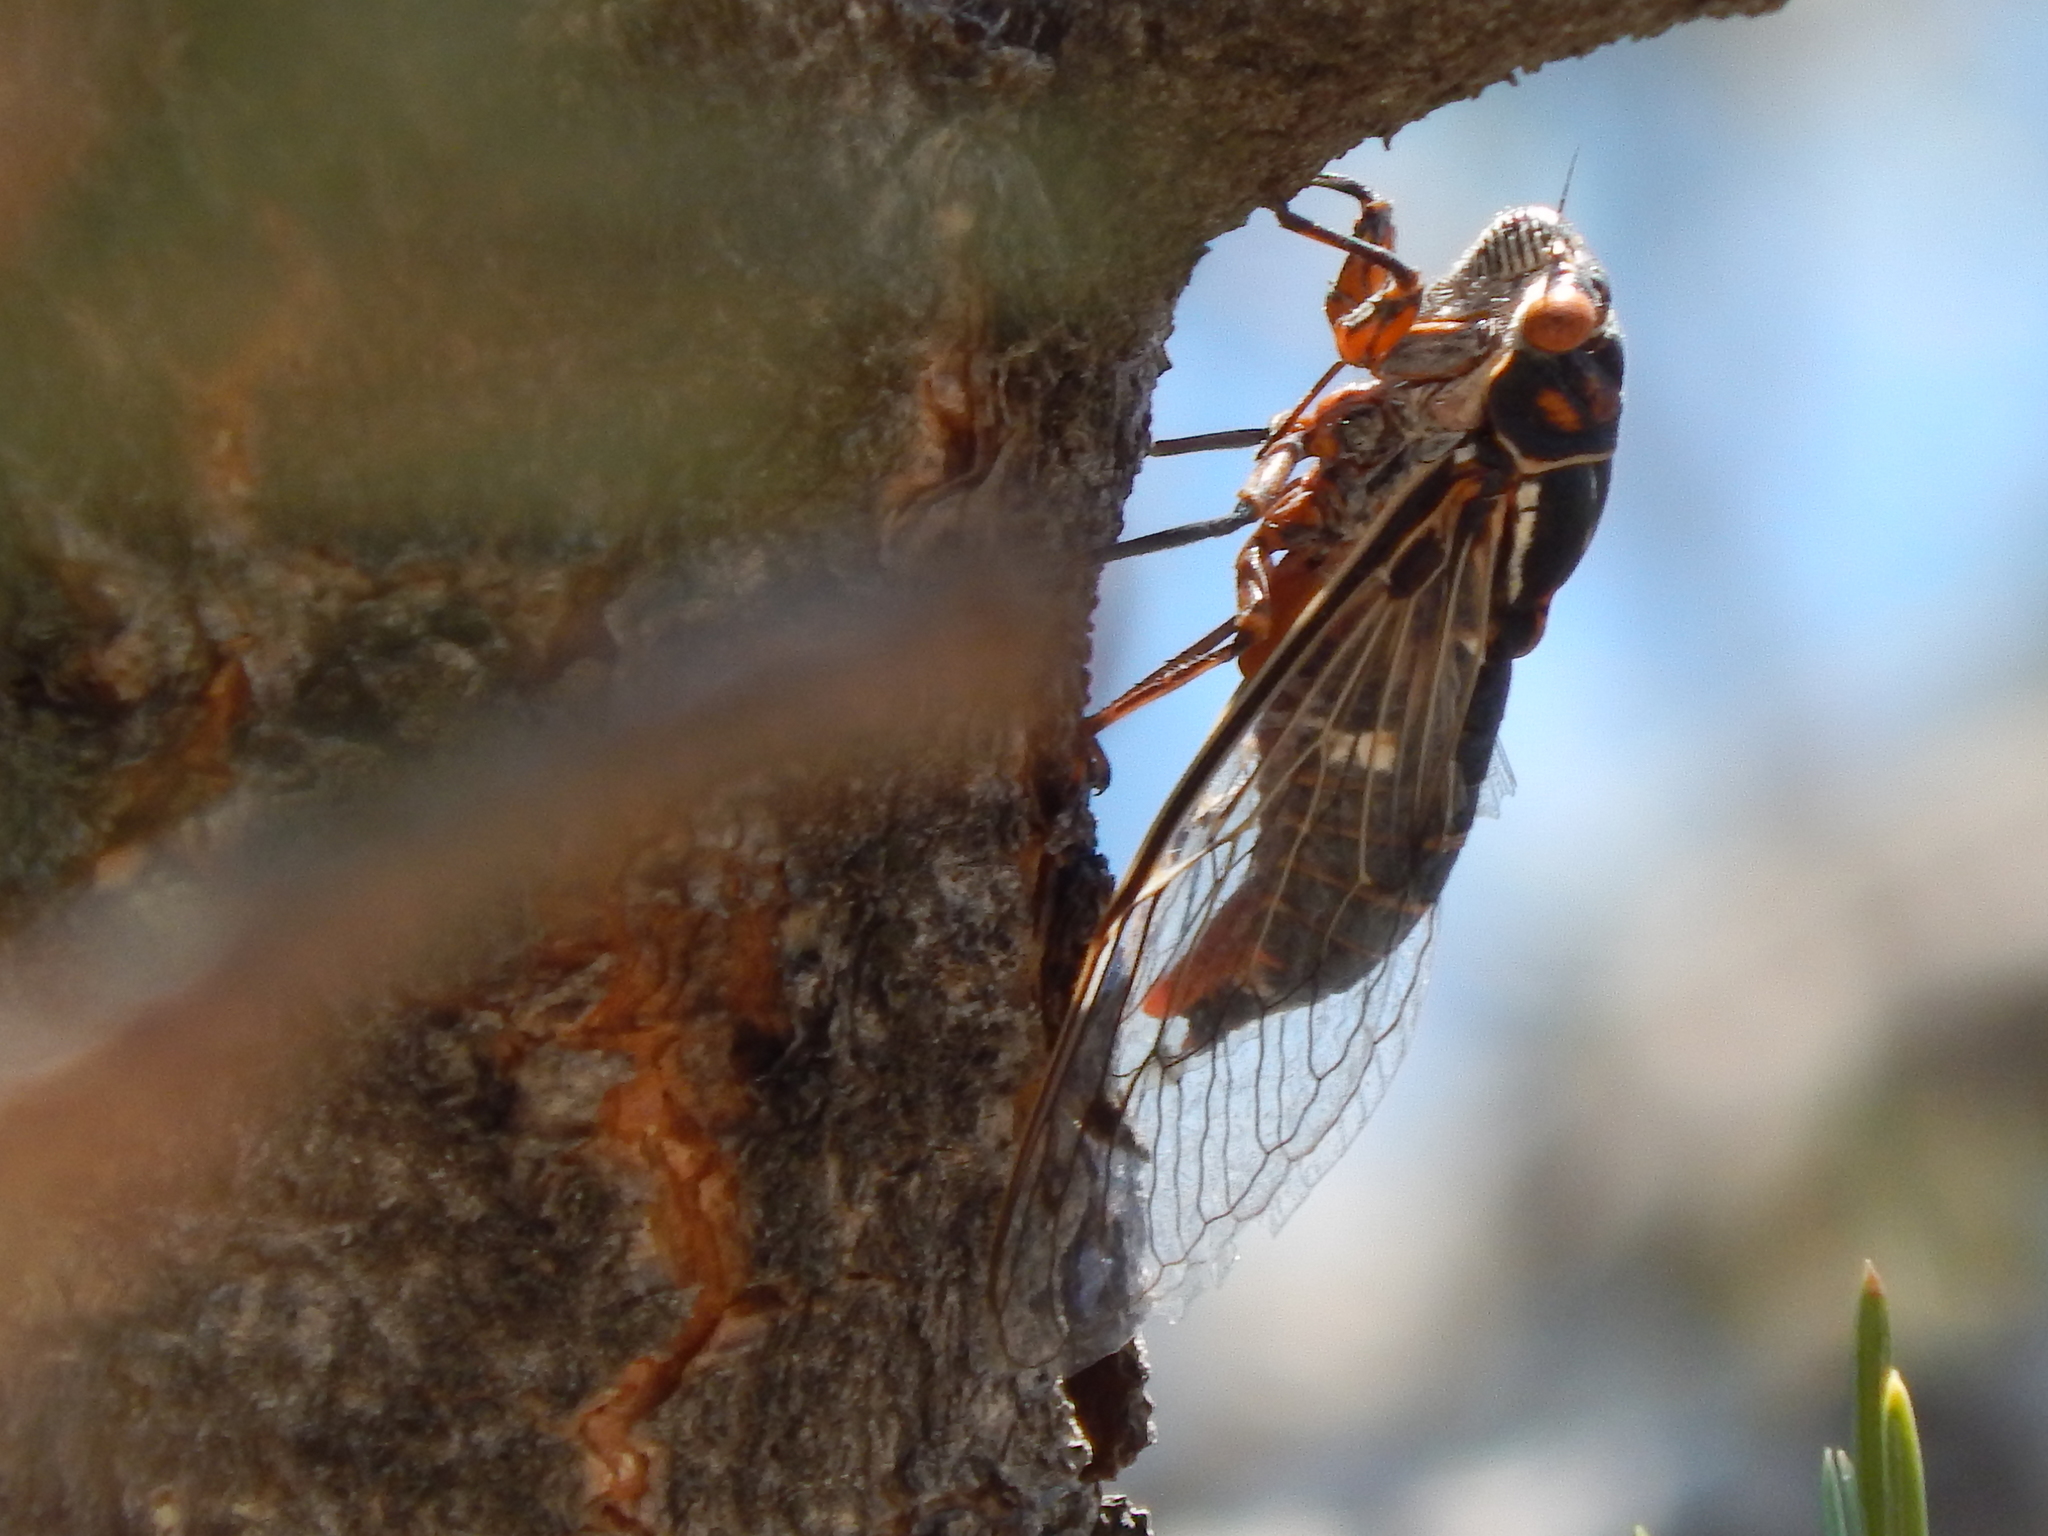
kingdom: Animalia
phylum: Arthropoda
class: Insecta
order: Hemiptera
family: Cicadidae
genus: Hadoa
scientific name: Hadoa duryi
